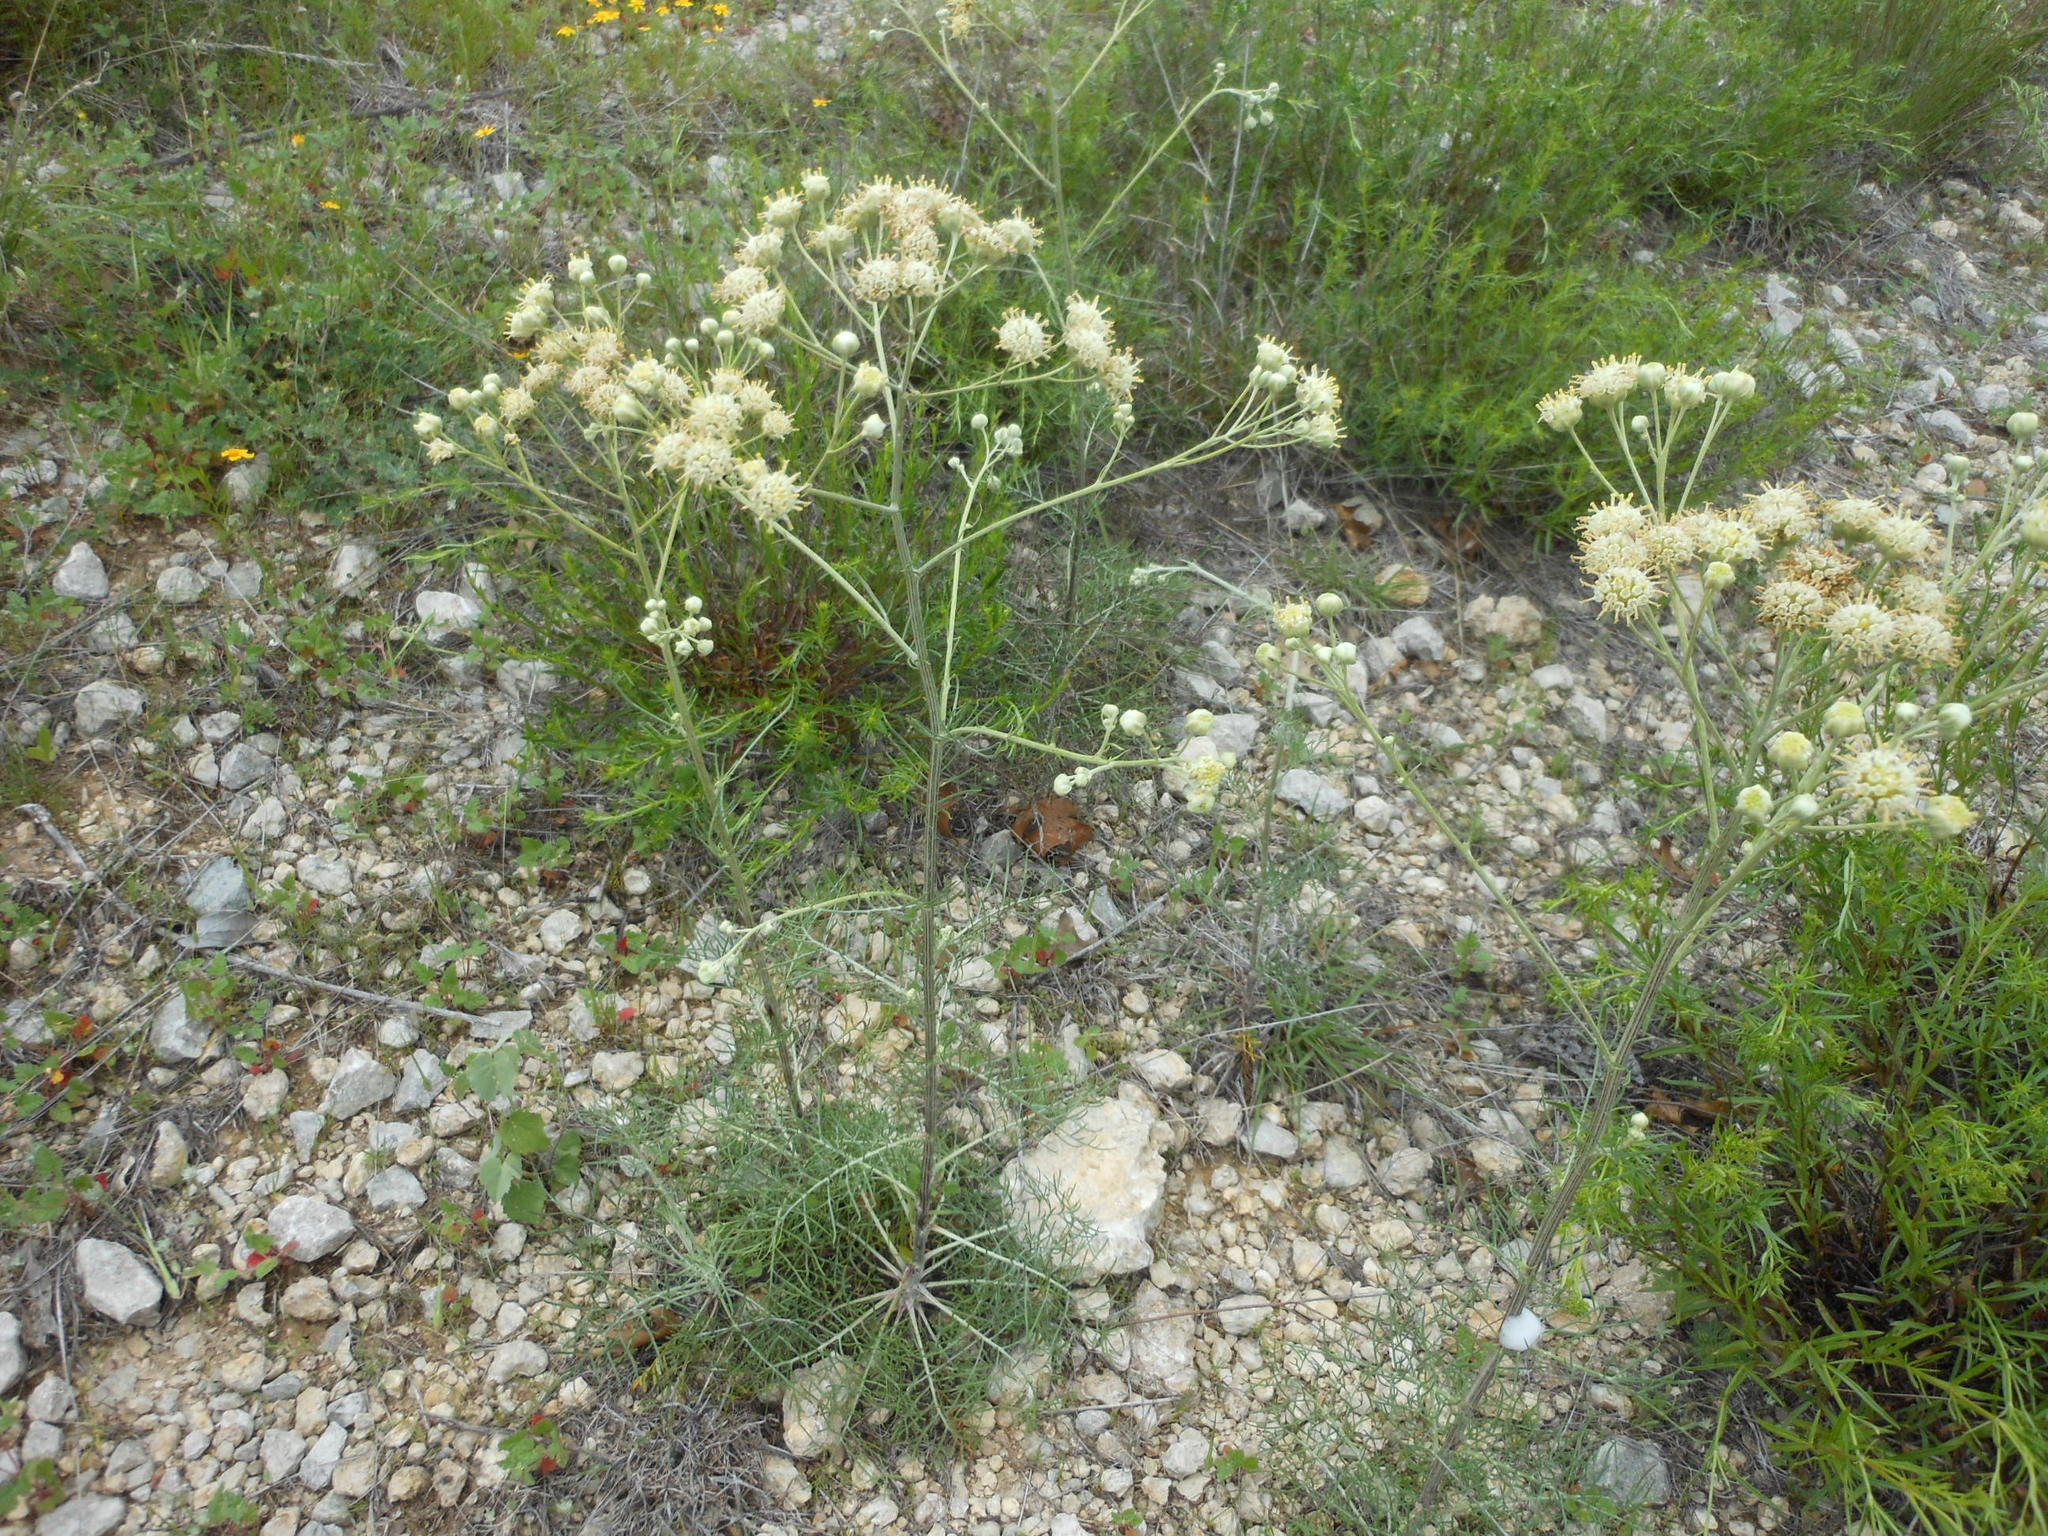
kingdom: Plantae
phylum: Tracheophyta
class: Magnoliopsida
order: Asterales
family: Asteraceae
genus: Hymenopappus
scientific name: Hymenopappus tenuifolius
